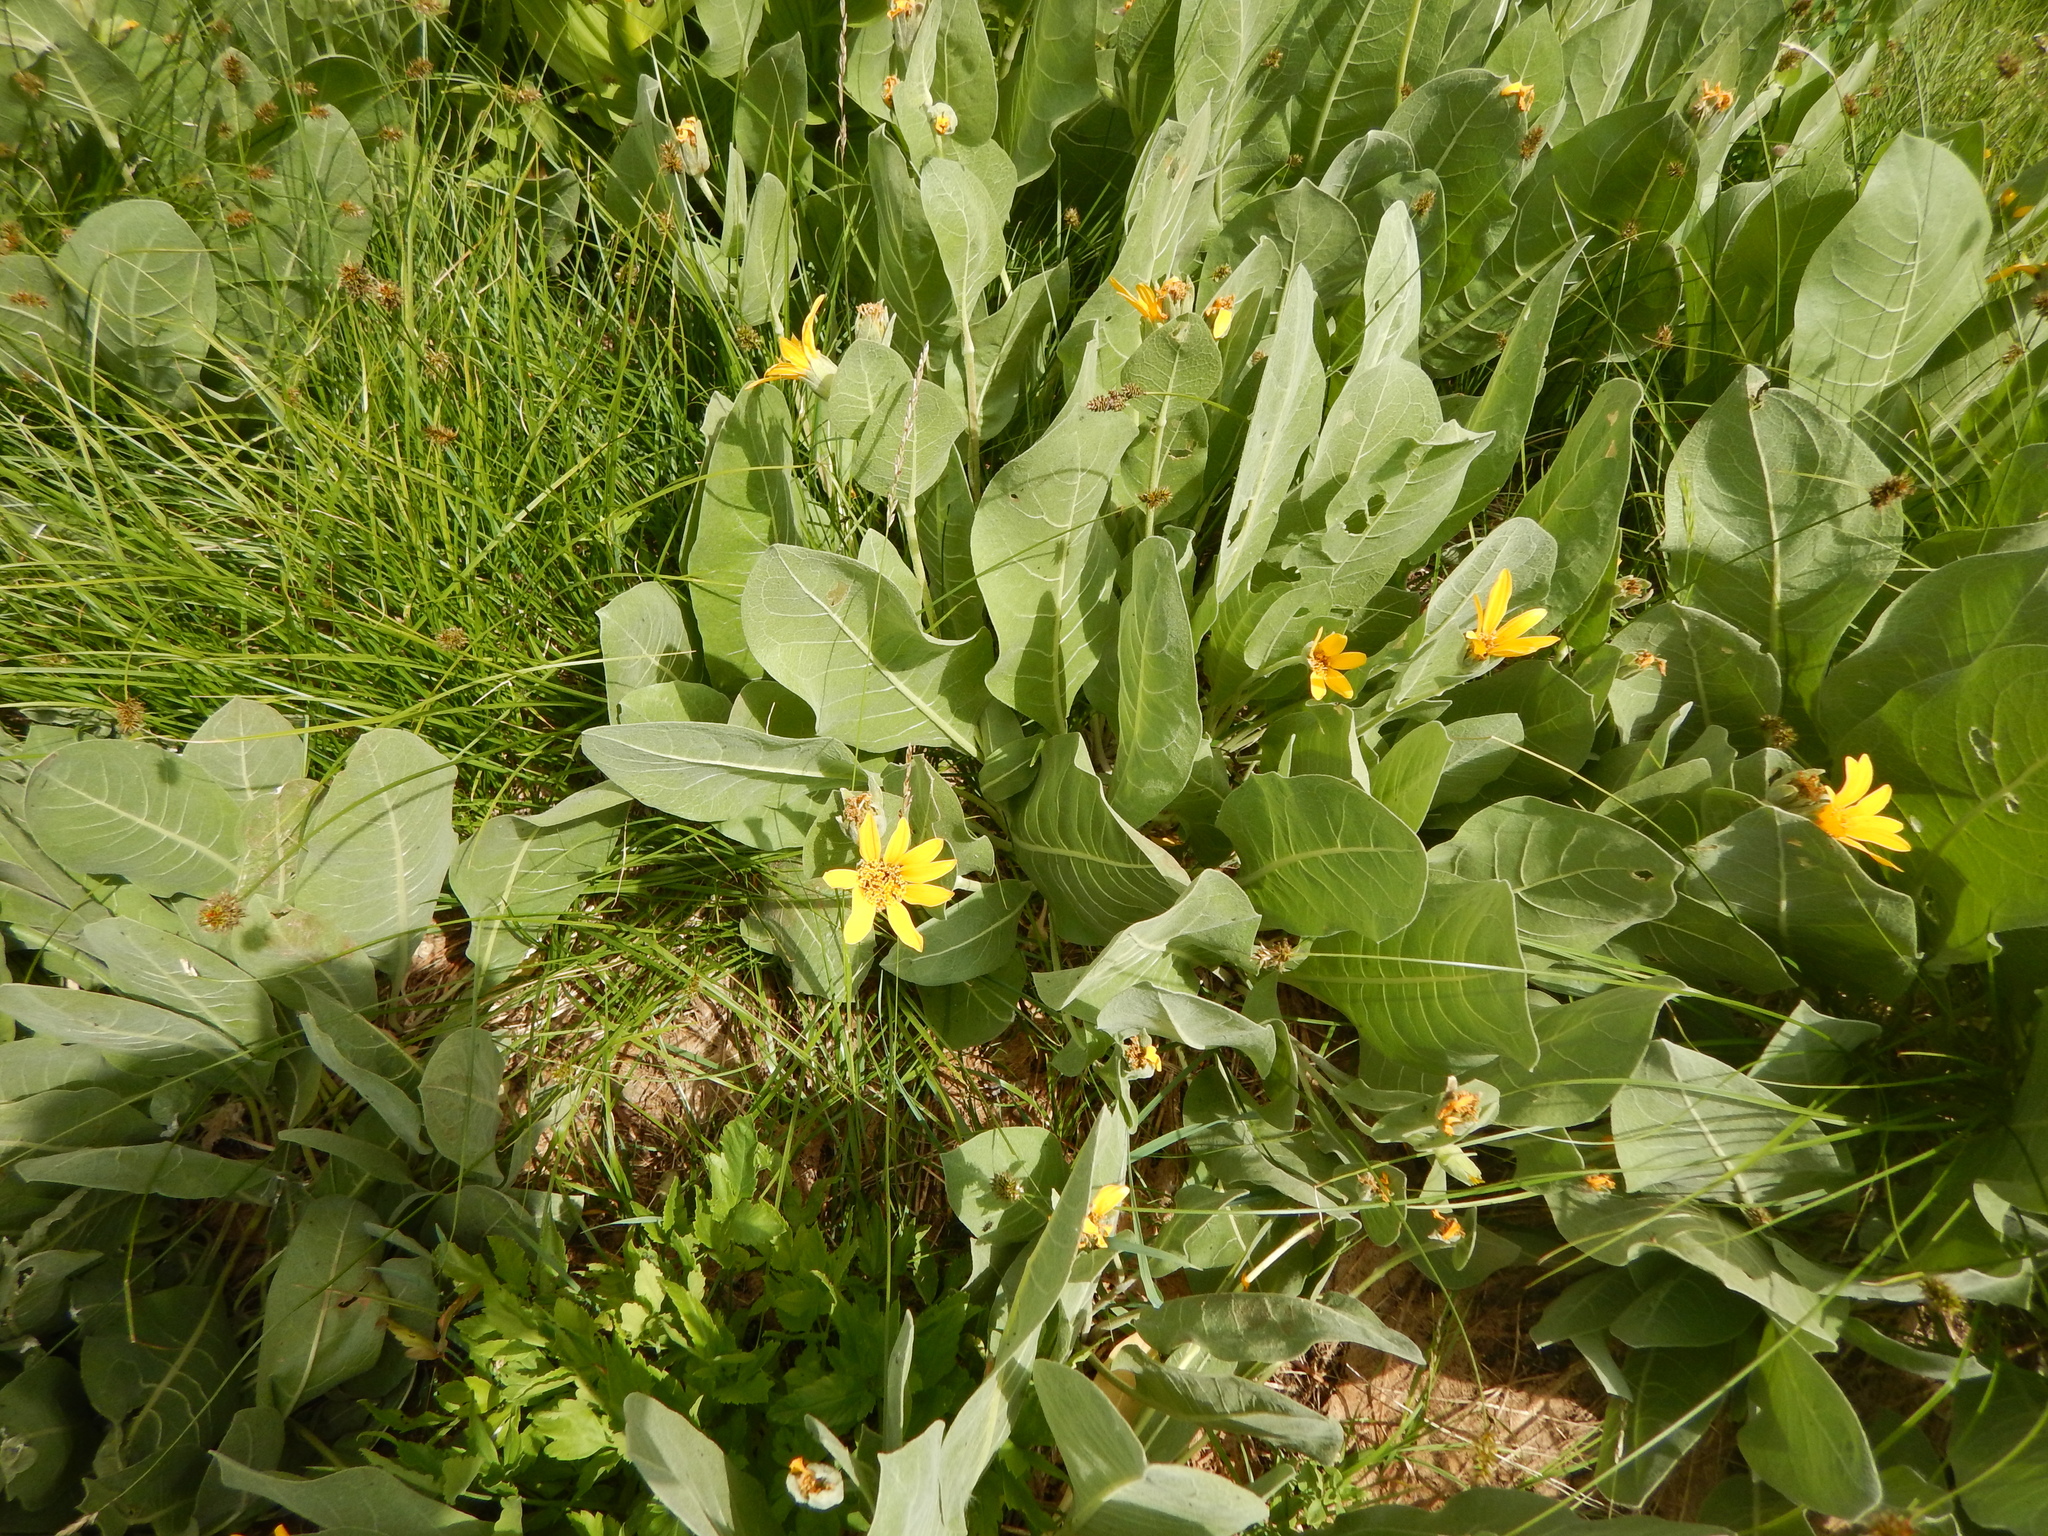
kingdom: Plantae
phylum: Tracheophyta
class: Magnoliopsida
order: Asterales
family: Asteraceae
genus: Wyethia
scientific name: Wyethia mollis
